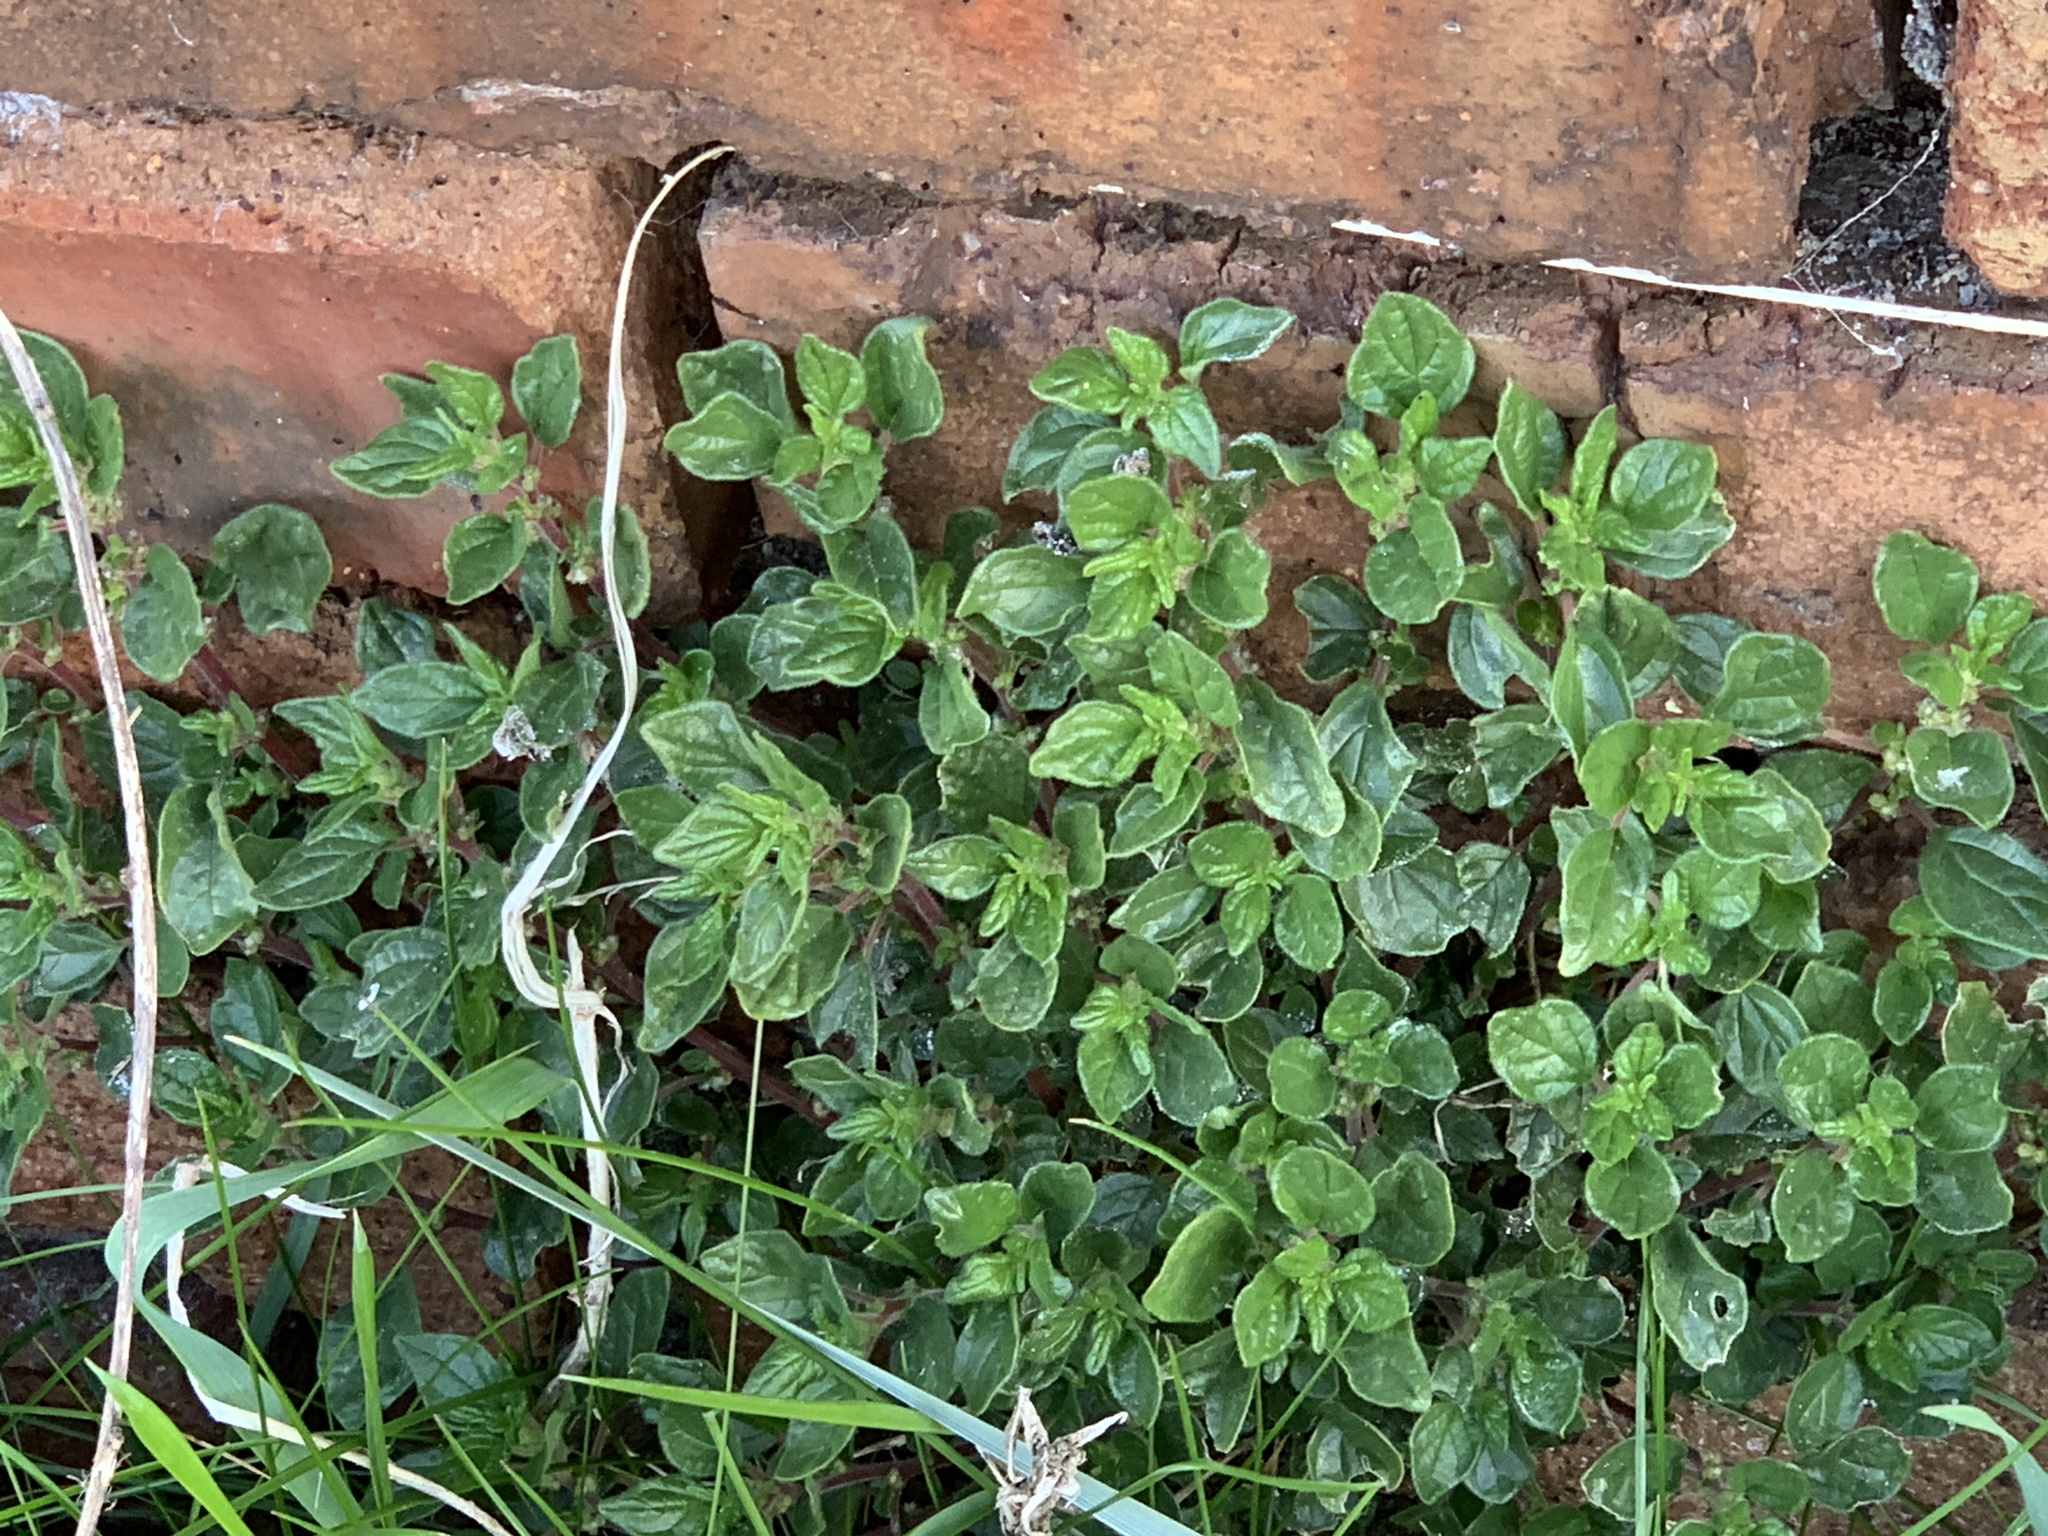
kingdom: Plantae
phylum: Tracheophyta
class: Magnoliopsida
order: Rosales
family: Urticaceae
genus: Parietaria
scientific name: Parietaria judaica
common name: Pellitory-of-the-wall
